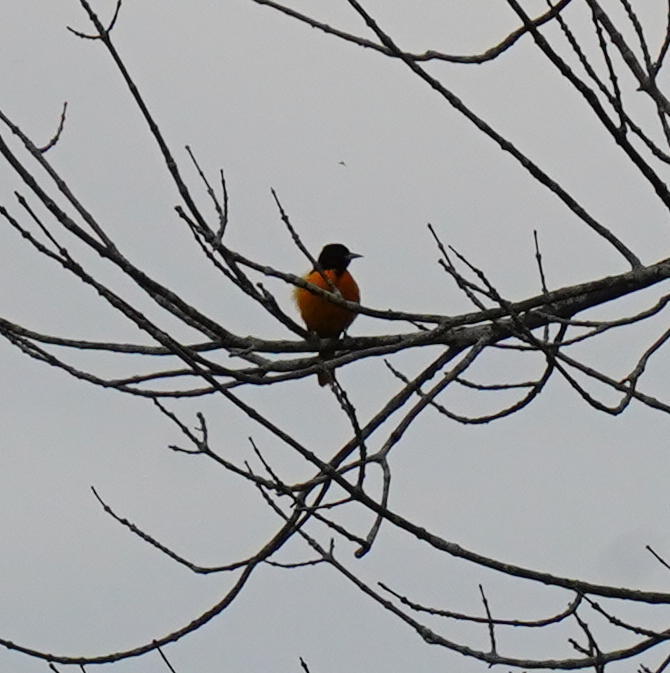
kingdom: Animalia
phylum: Chordata
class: Aves
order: Passeriformes
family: Icteridae
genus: Icterus
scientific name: Icterus galbula
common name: Baltimore oriole
